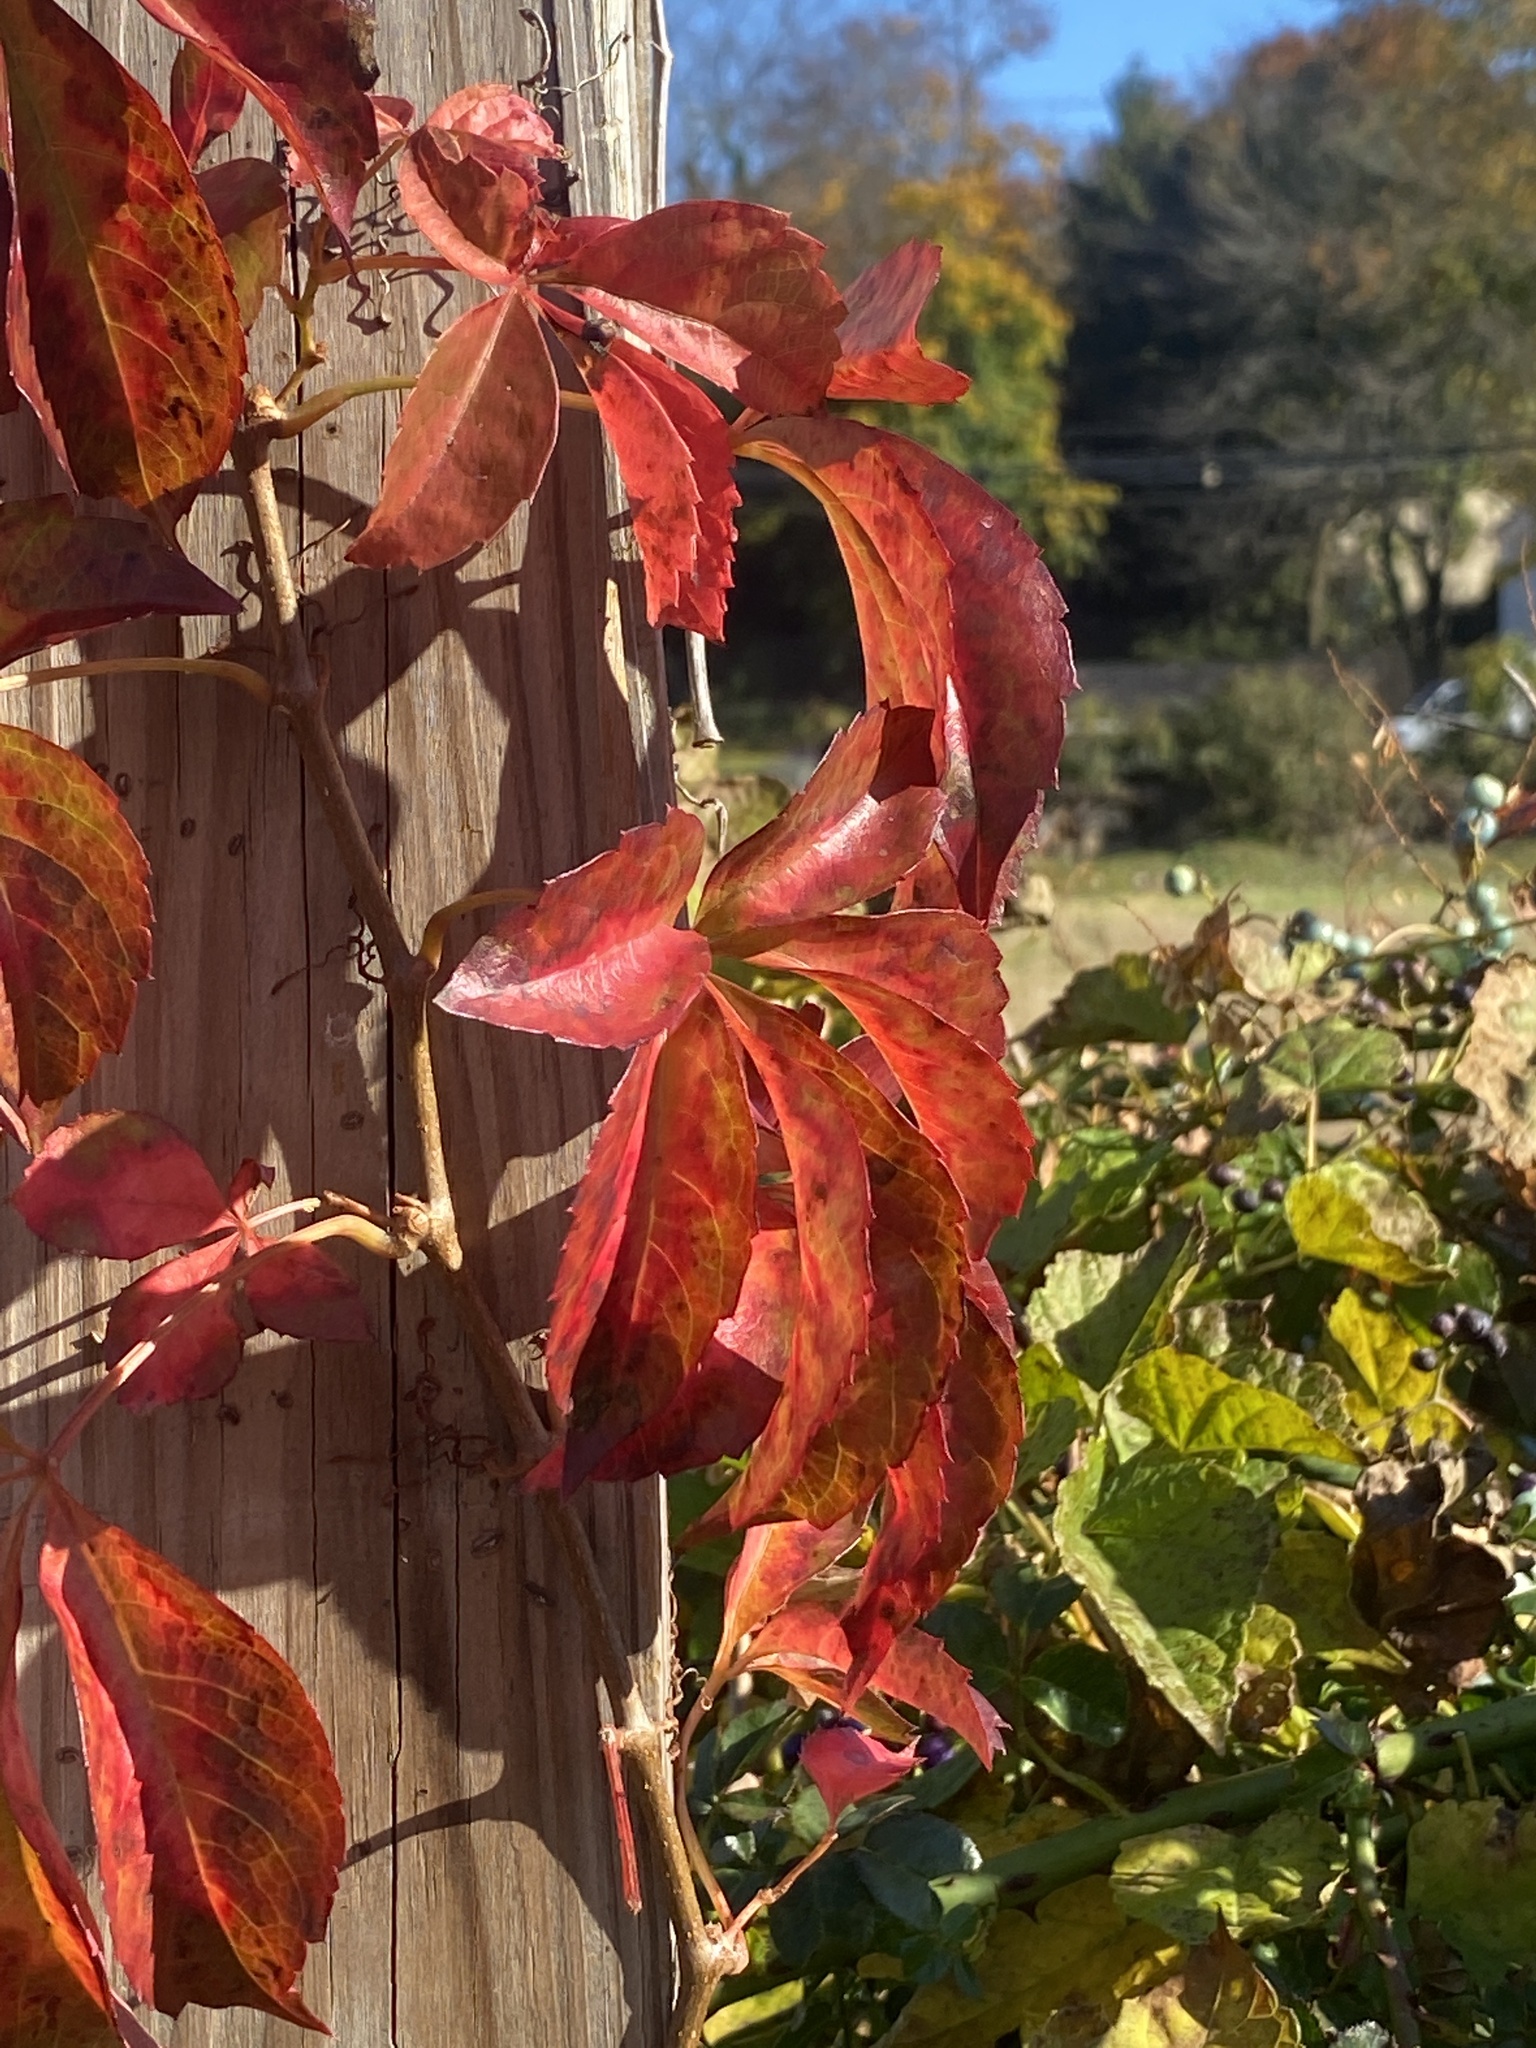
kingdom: Plantae
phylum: Tracheophyta
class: Magnoliopsida
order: Vitales
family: Vitaceae
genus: Parthenocissus
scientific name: Parthenocissus quinquefolia
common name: Virginia-creeper
